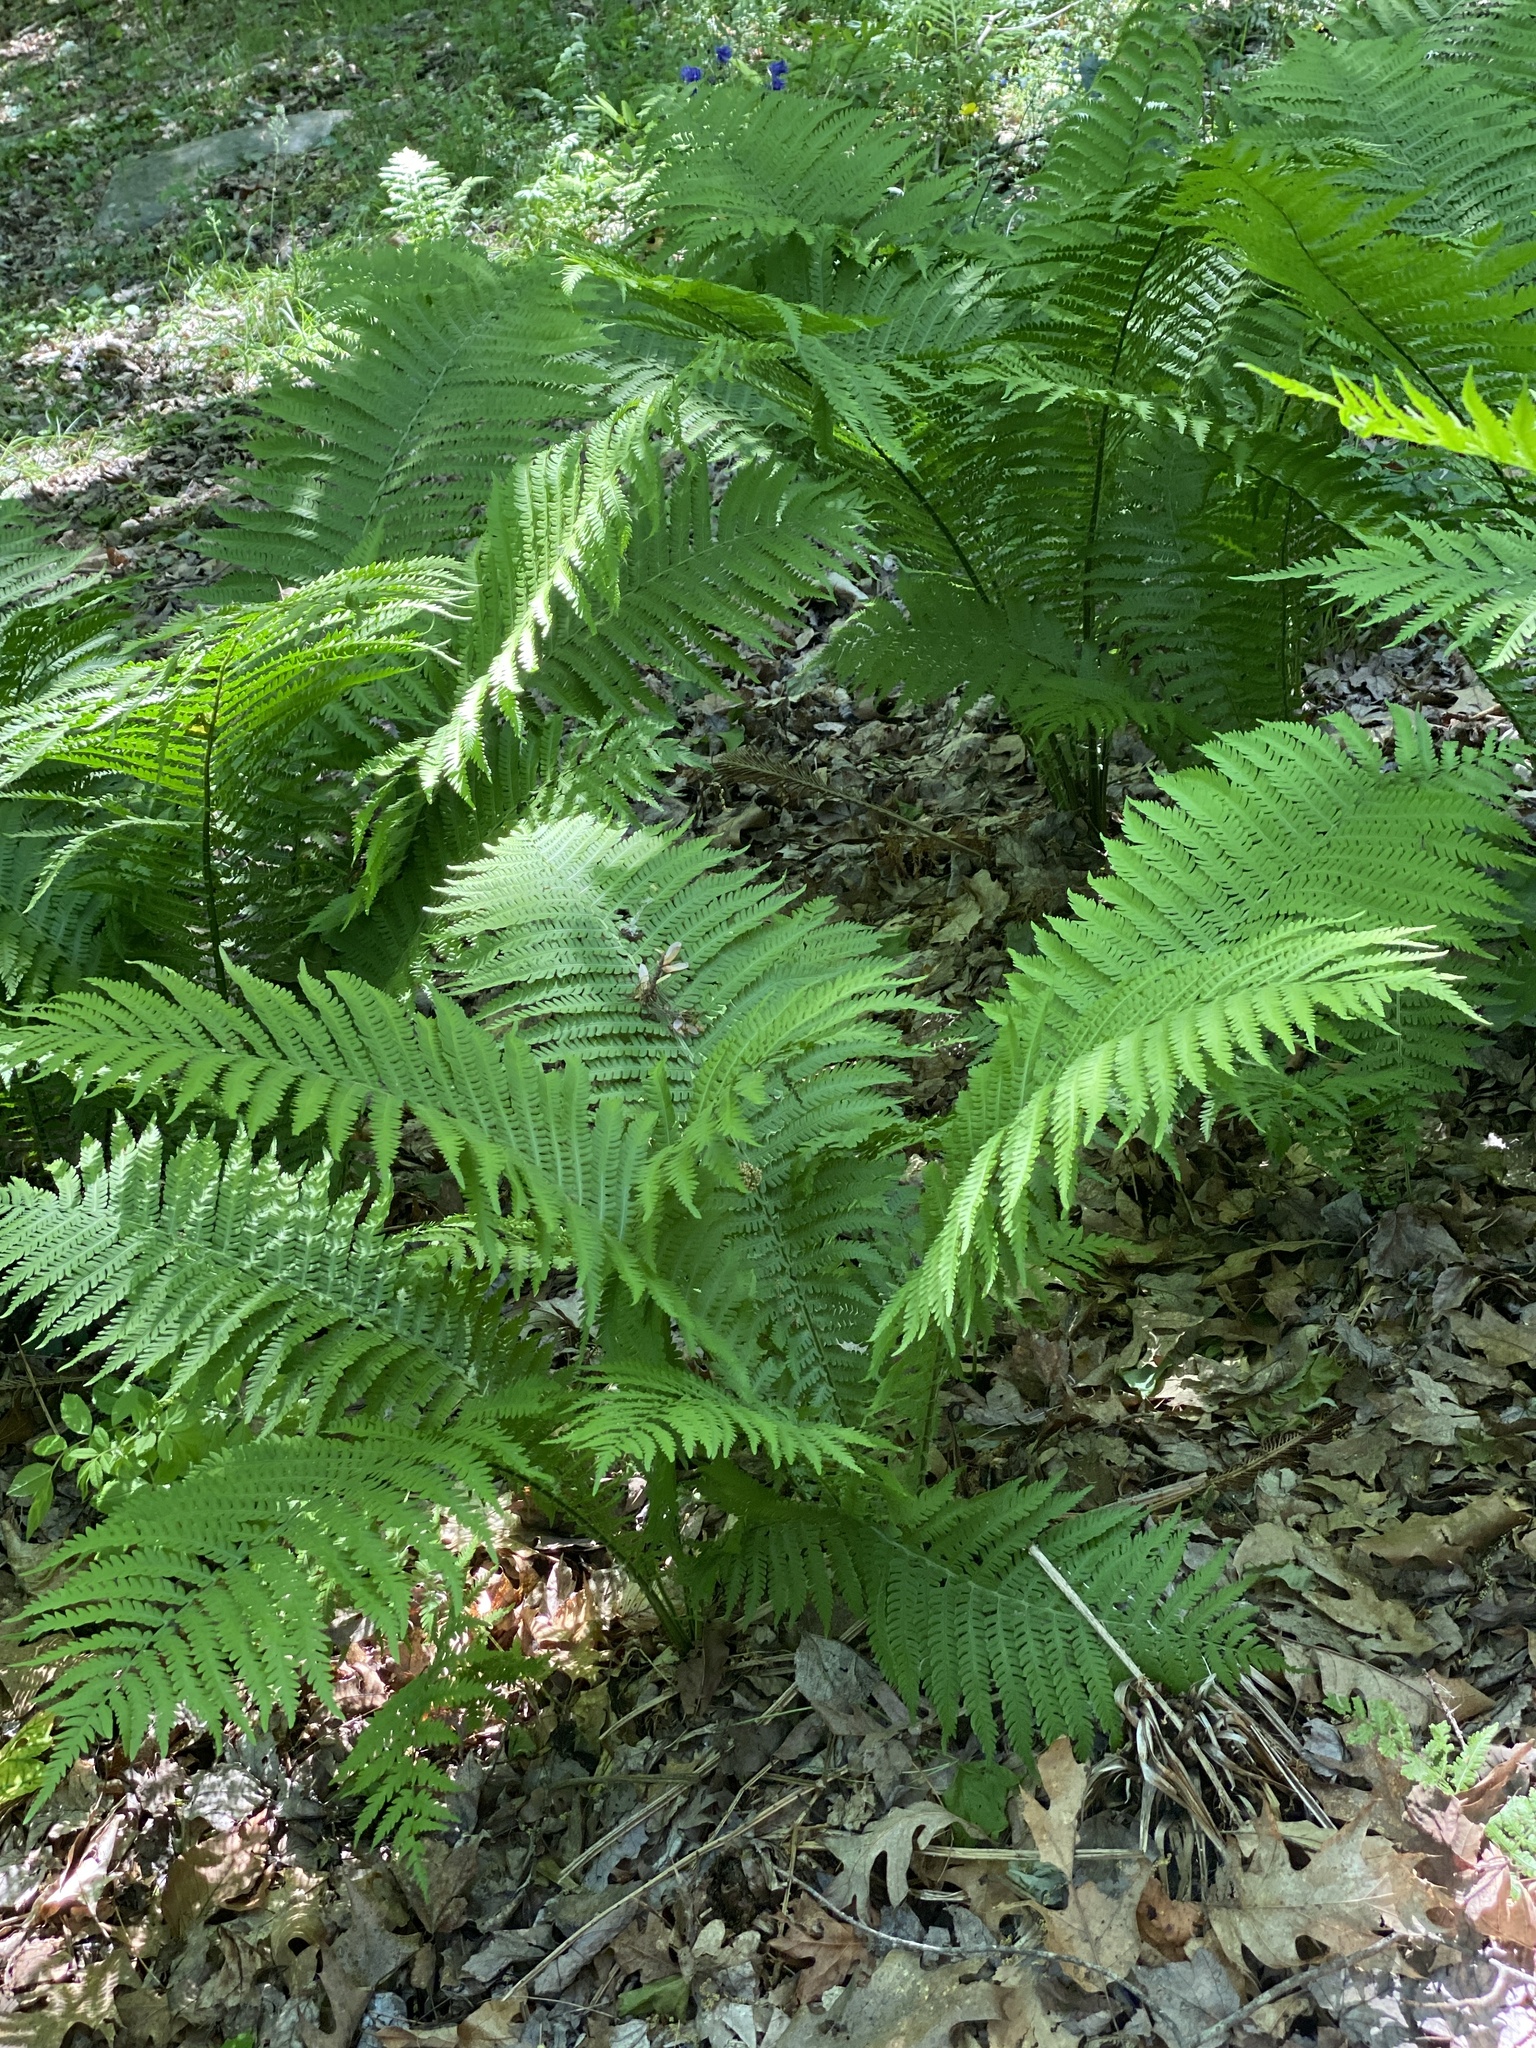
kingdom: Plantae
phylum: Tracheophyta
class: Polypodiopsida
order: Polypodiales
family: Onocleaceae
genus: Matteuccia
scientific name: Matteuccia struthiopteris
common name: Ostrich fern
